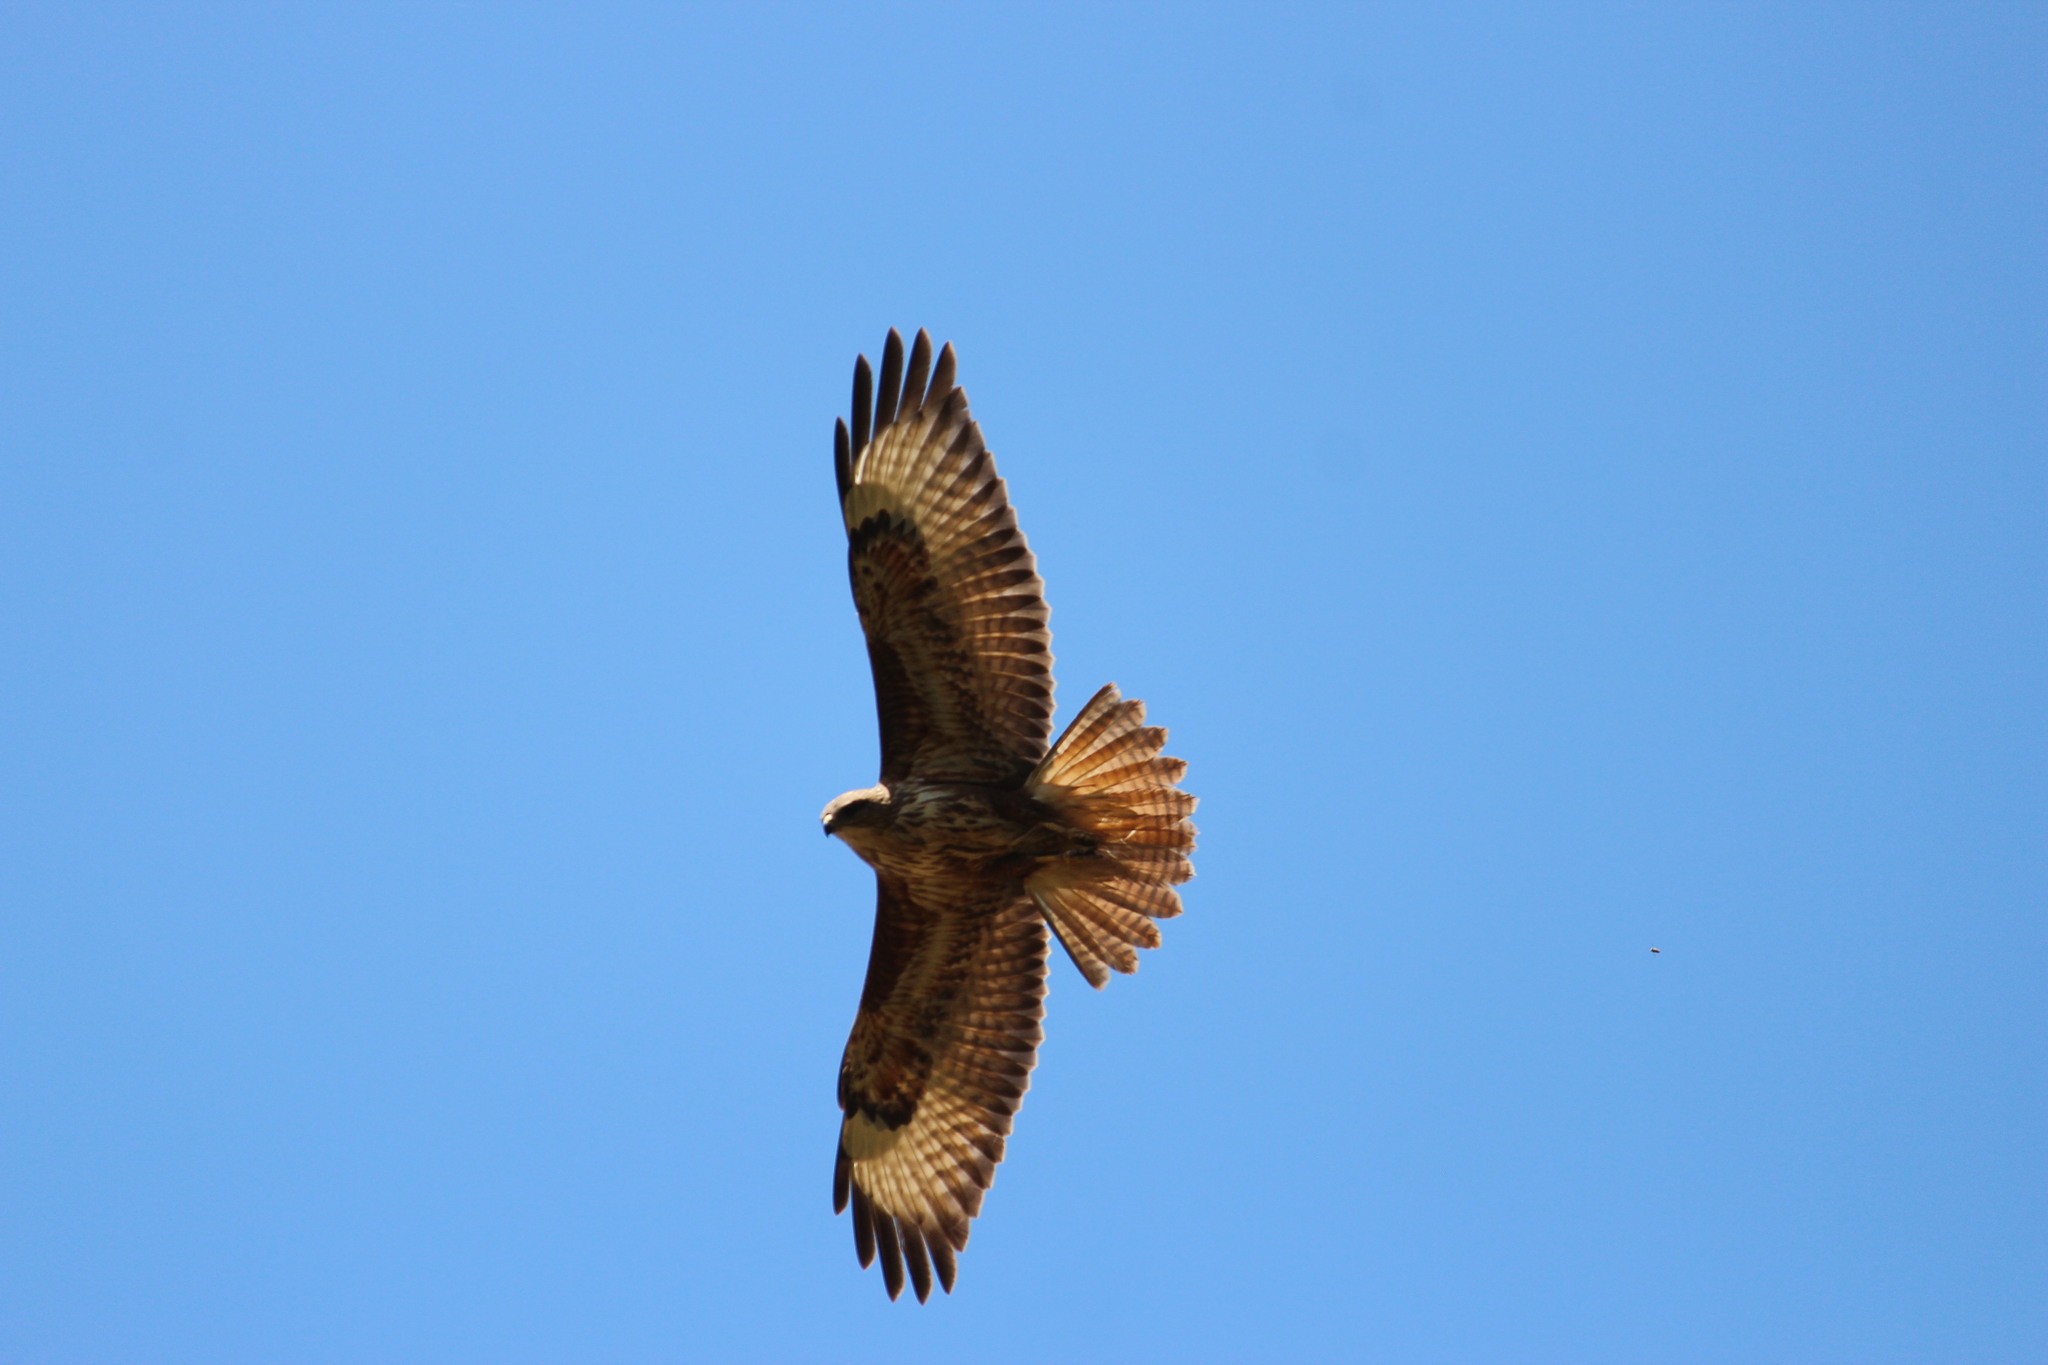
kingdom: Animalia
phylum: Chordata
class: Aves
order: Accipitriformes
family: Accipitridae
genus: Buteo
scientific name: Buteo buteo
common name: Common buzzard
